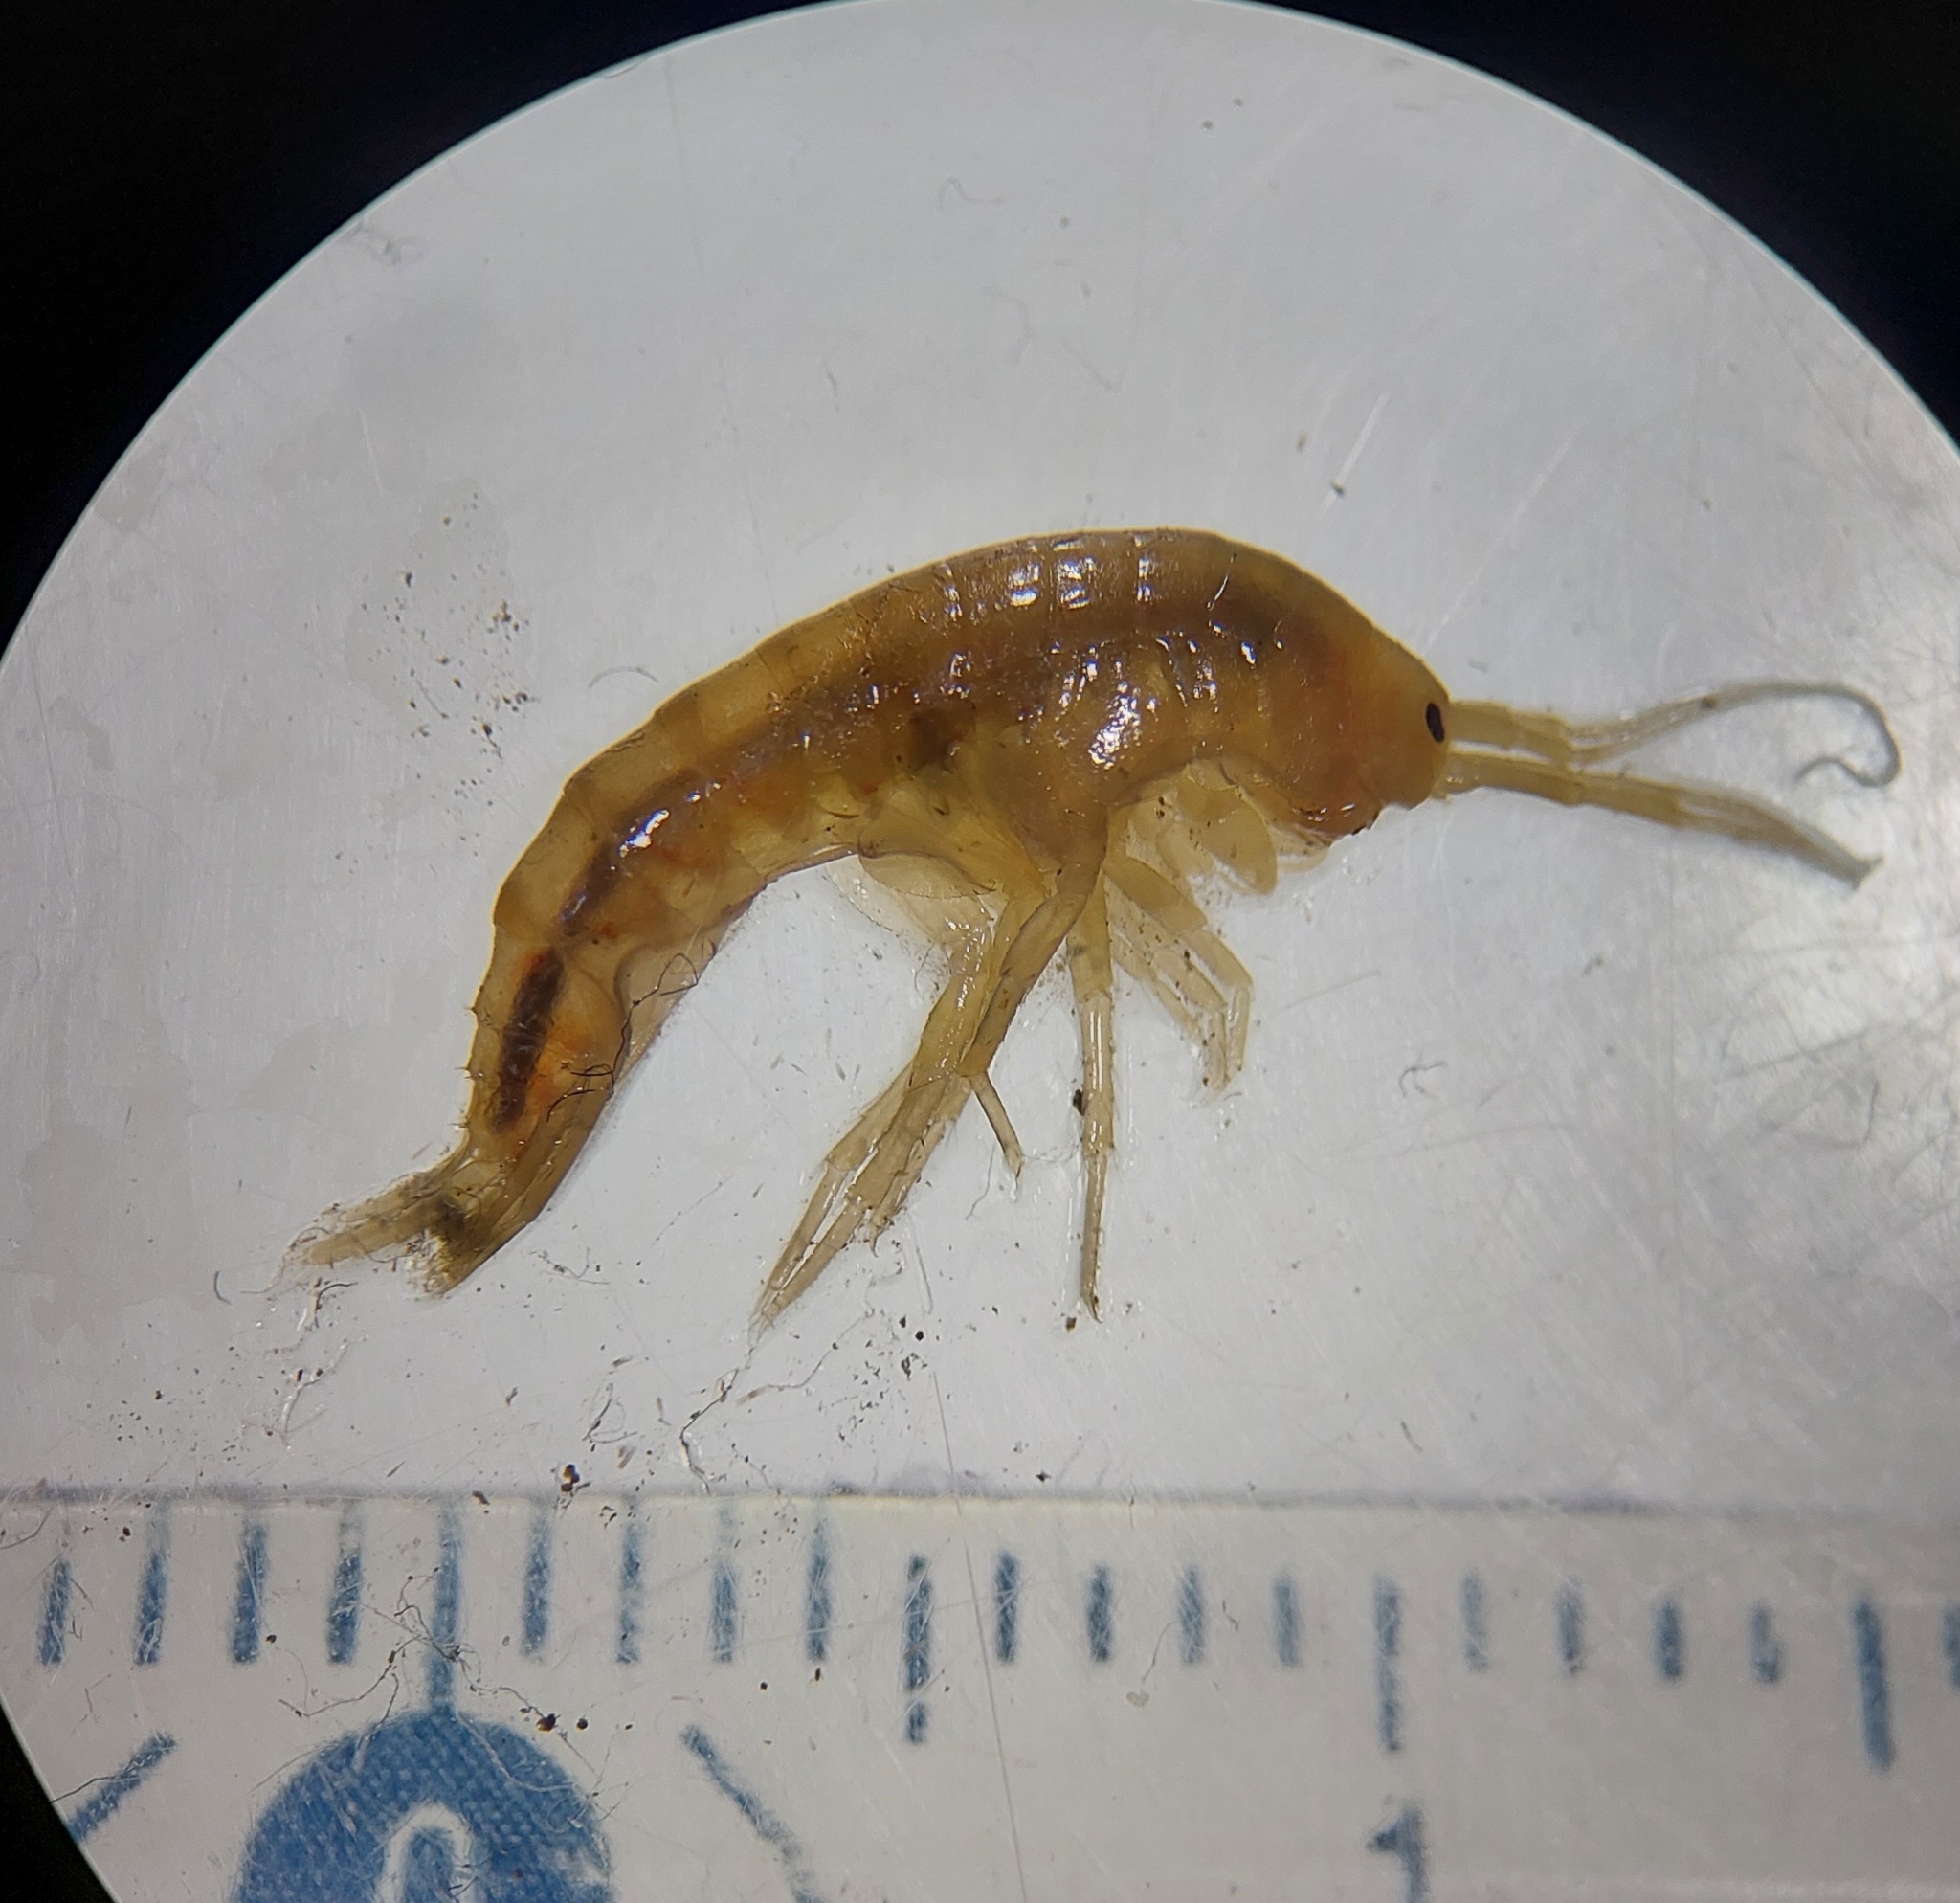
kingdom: Animalia
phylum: Arthropoda
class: Malacostraca
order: Amphipoda
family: Gammaridae
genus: Gammarus
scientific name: Gammarus pulex
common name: Common freshwater amphipod
